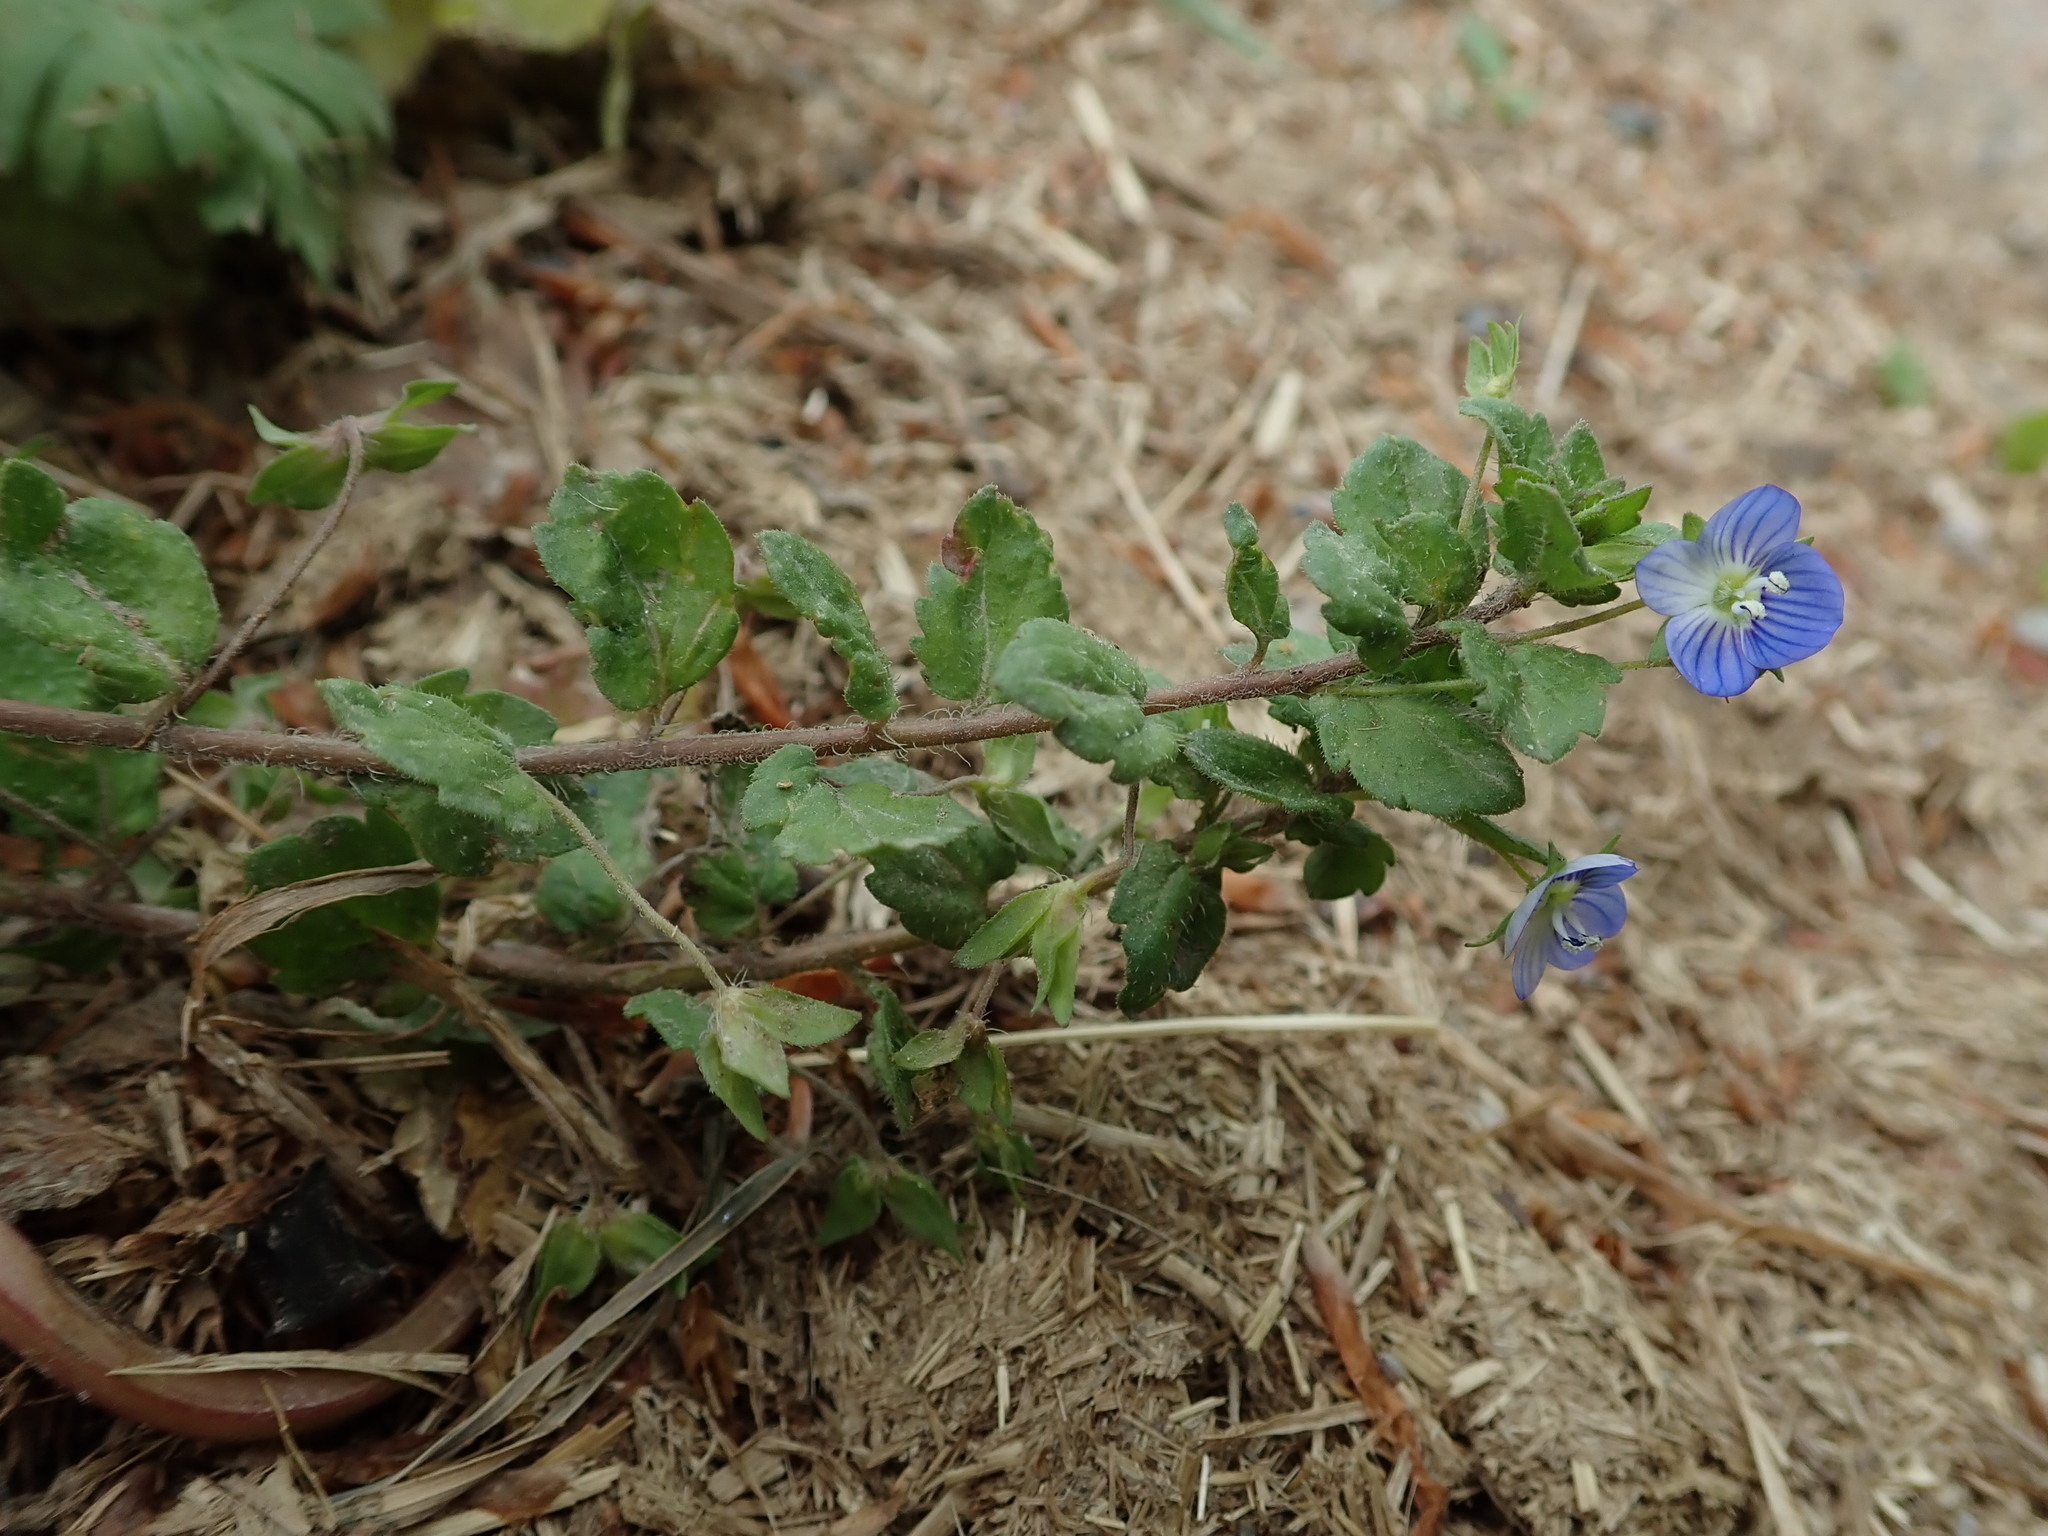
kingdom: Plantae
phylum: Tracheophyta
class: Magnoliopsida
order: Lamiales
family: Plantaginaceae
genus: Veronica
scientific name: Veronica persica
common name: Common field-speedwell
